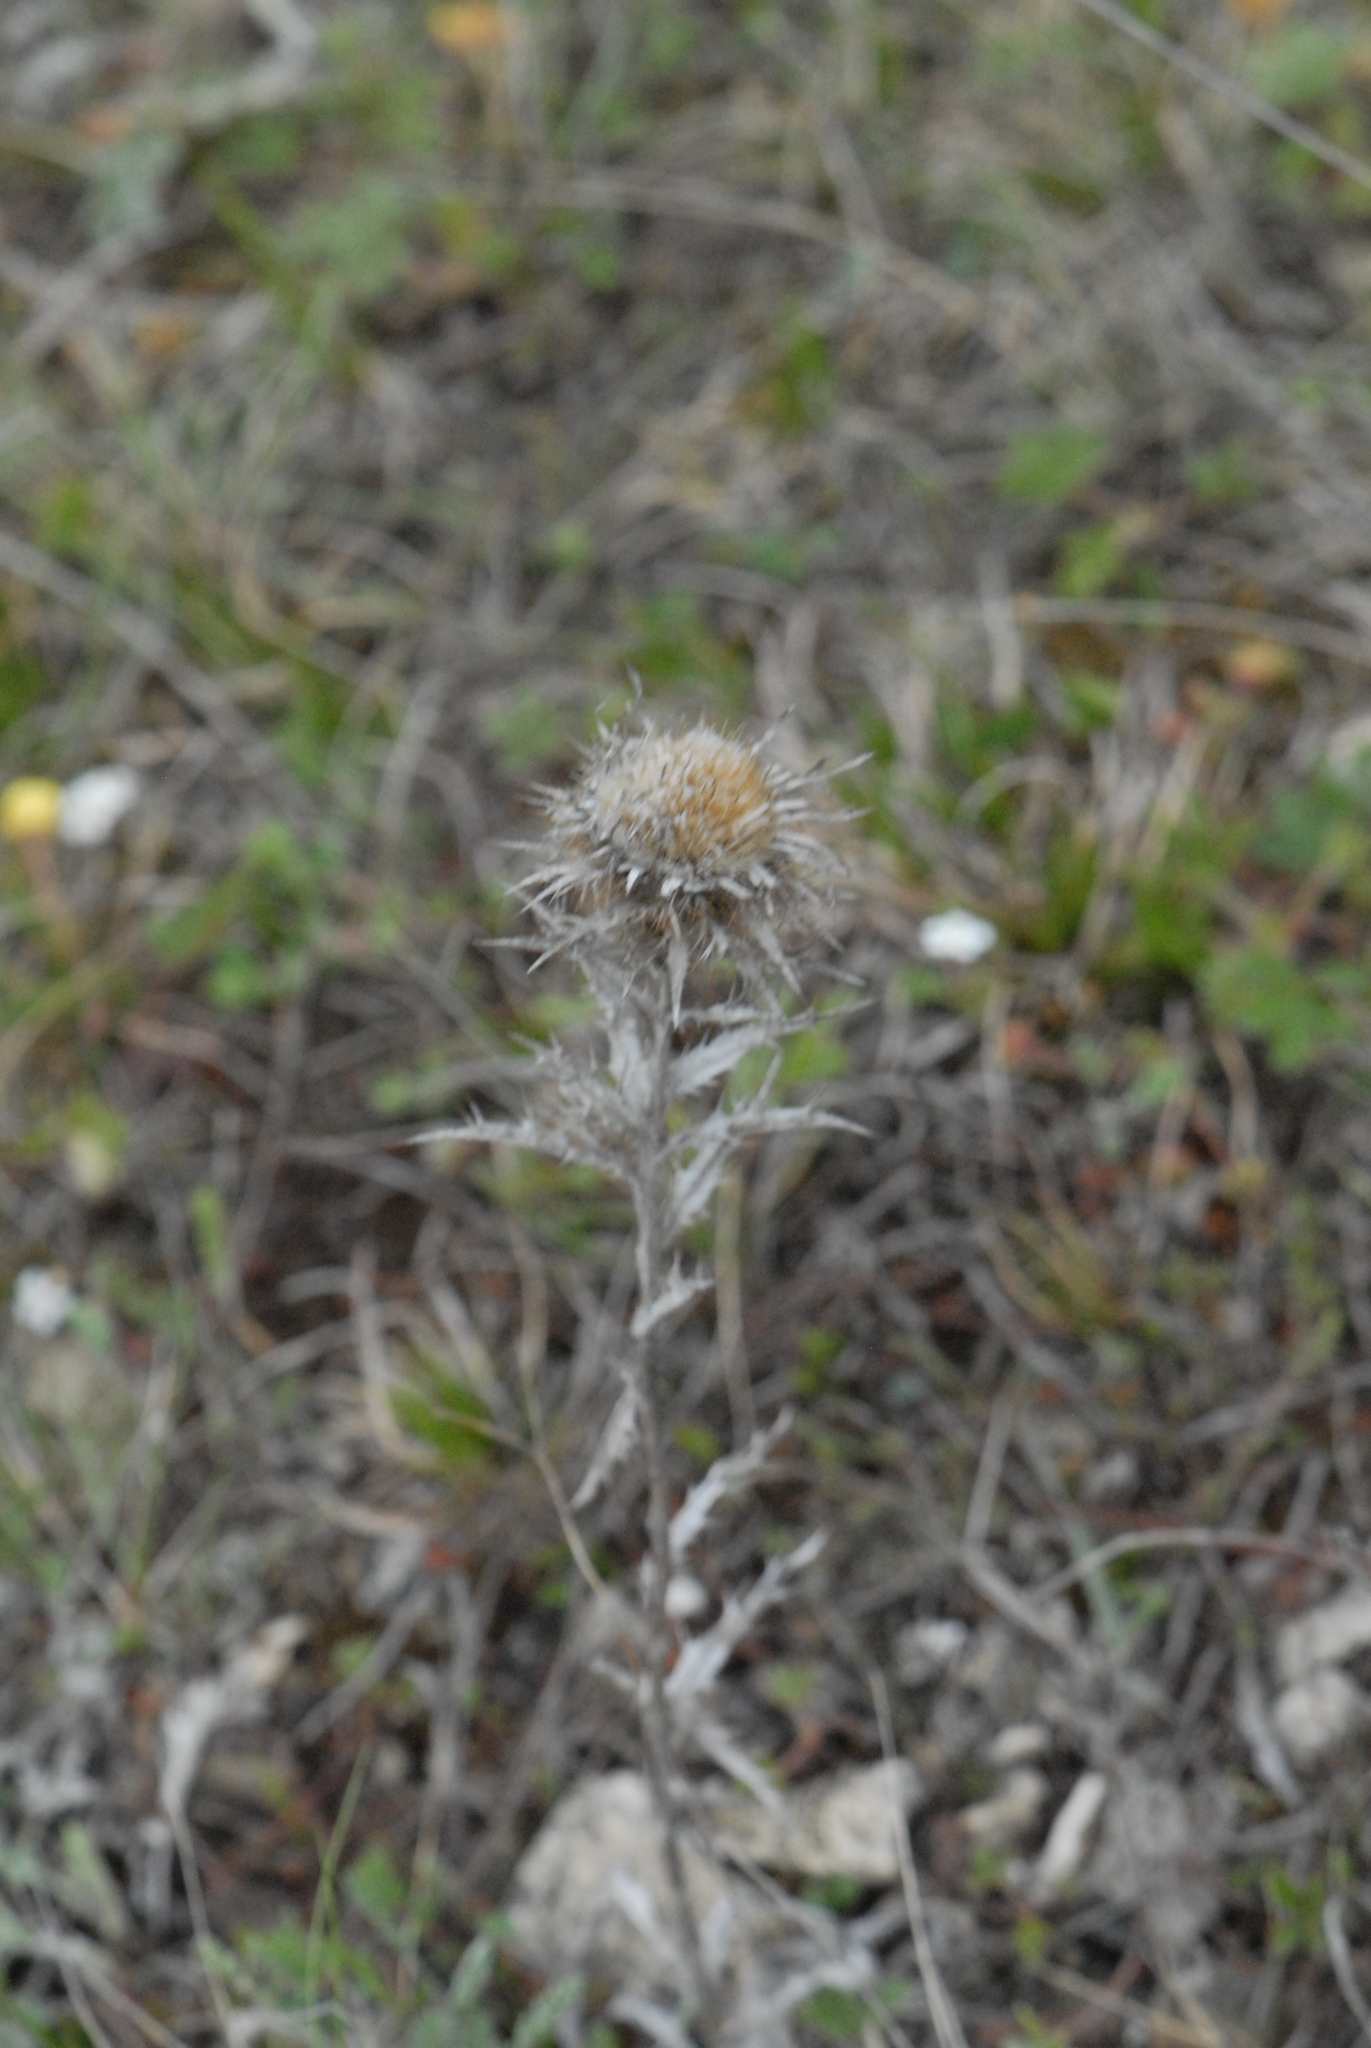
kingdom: Plantae
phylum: Tracheophyta
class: Magnoliopsida
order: Asterales
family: Asteraceae
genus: Carlina
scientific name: Carlina vulgaris
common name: Carline thistle
